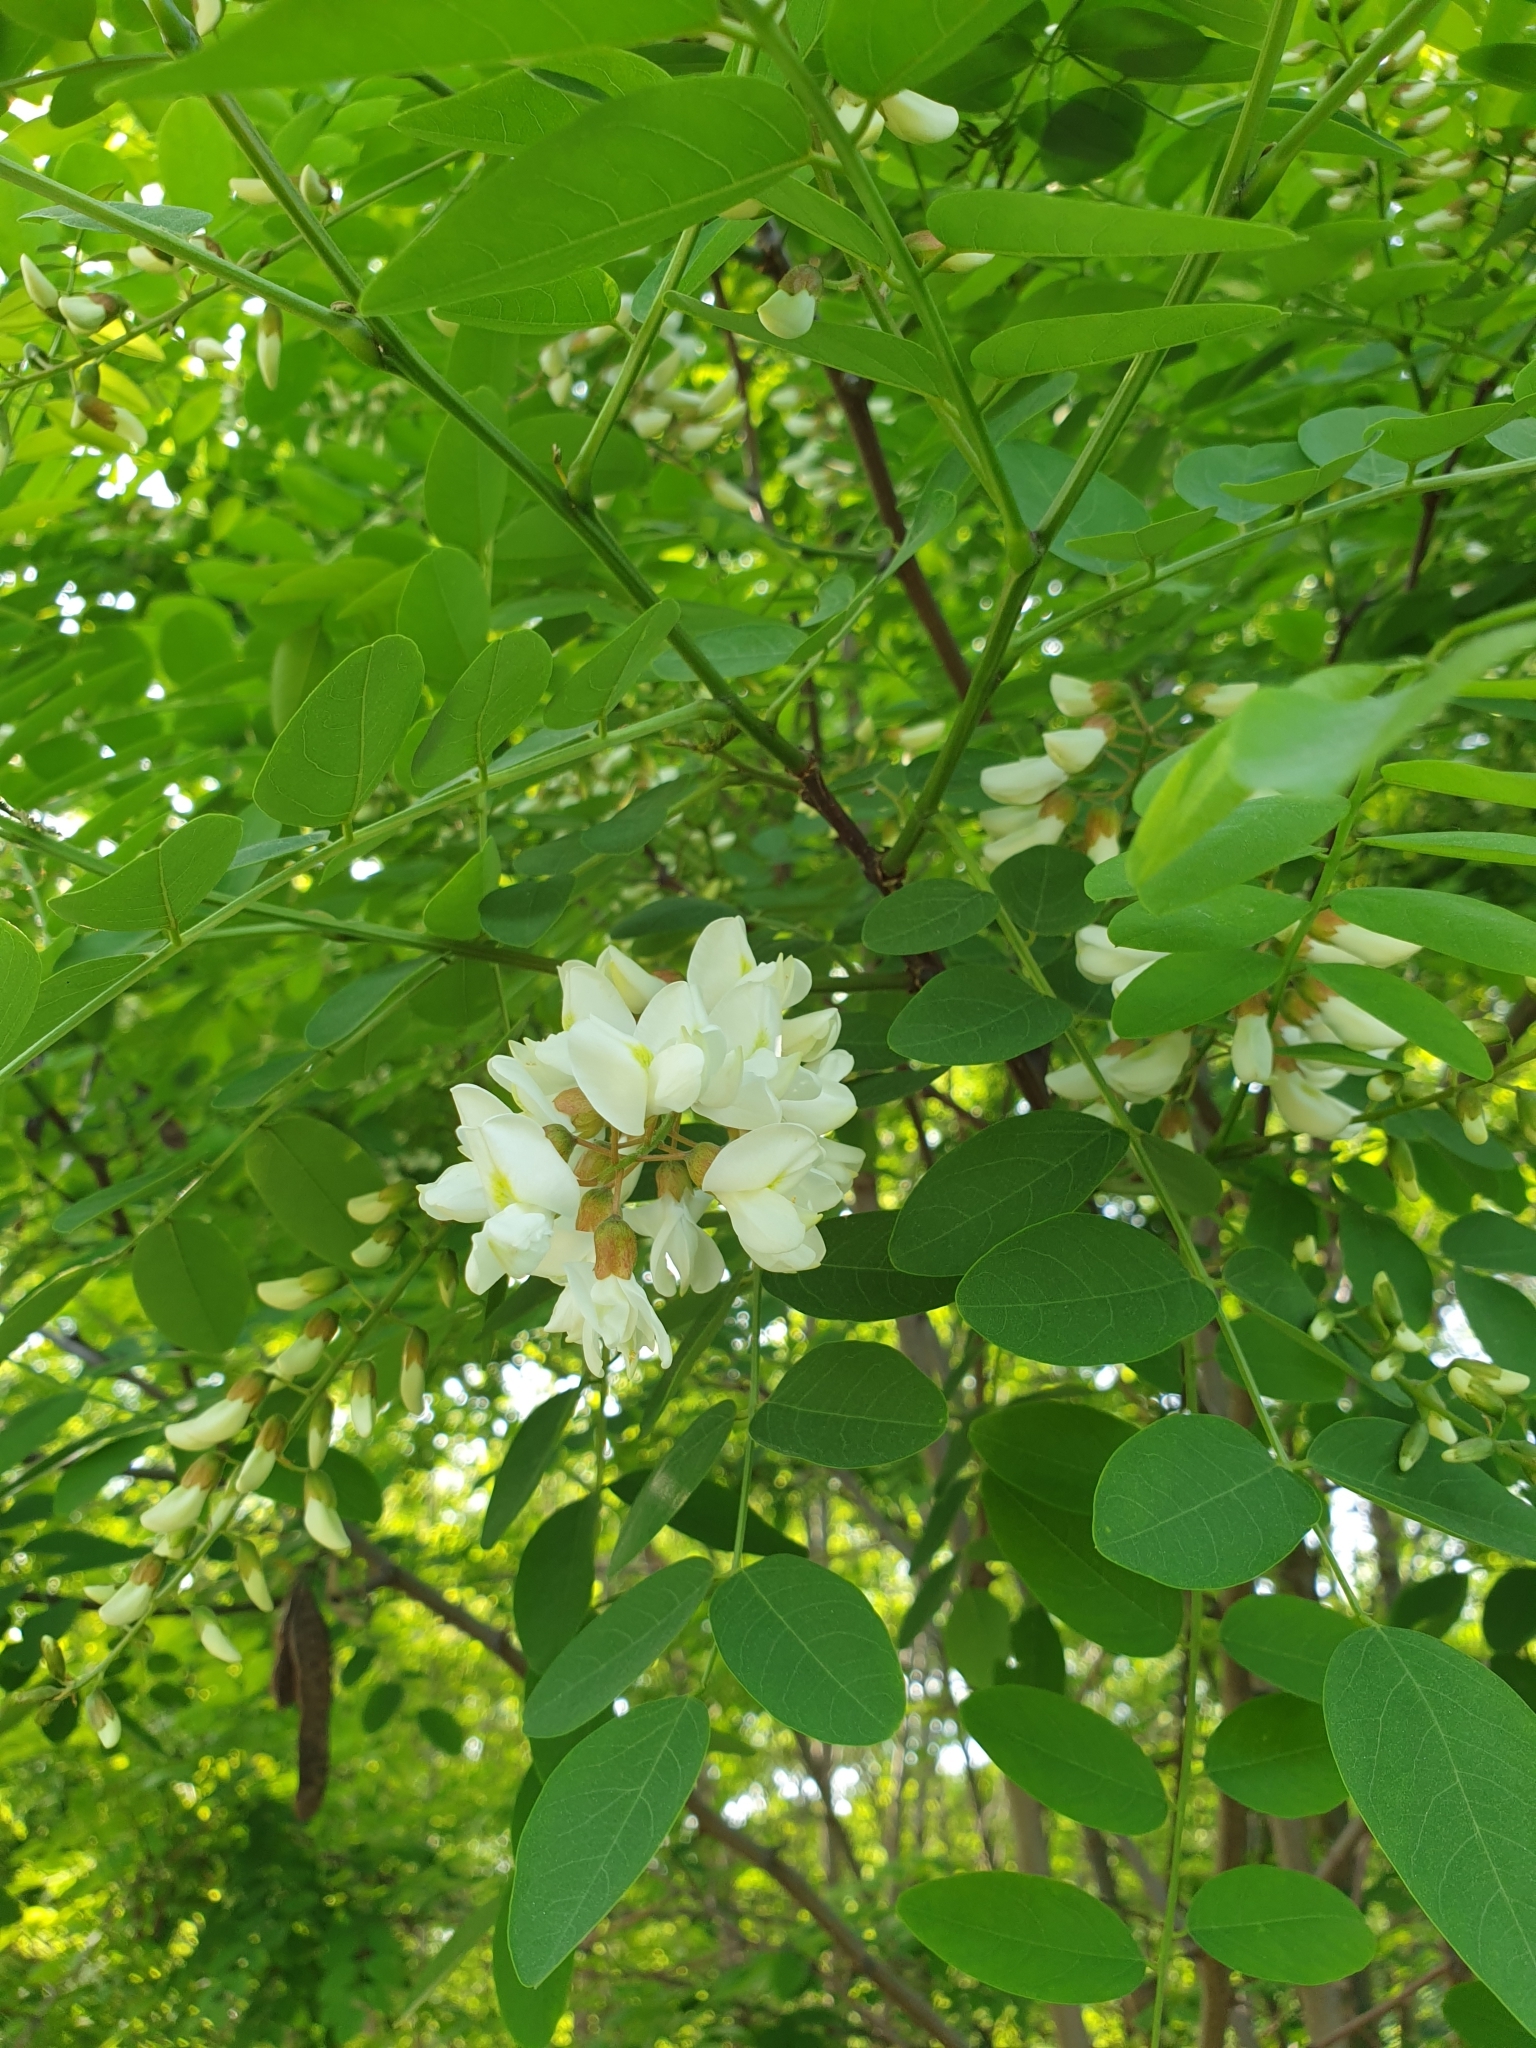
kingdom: Plantae
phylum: Tracheophyta
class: Magnoliopsida
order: Fabales
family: Fabaceae
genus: Robinia
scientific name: Robinia pseudoacacia
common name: Black locust
